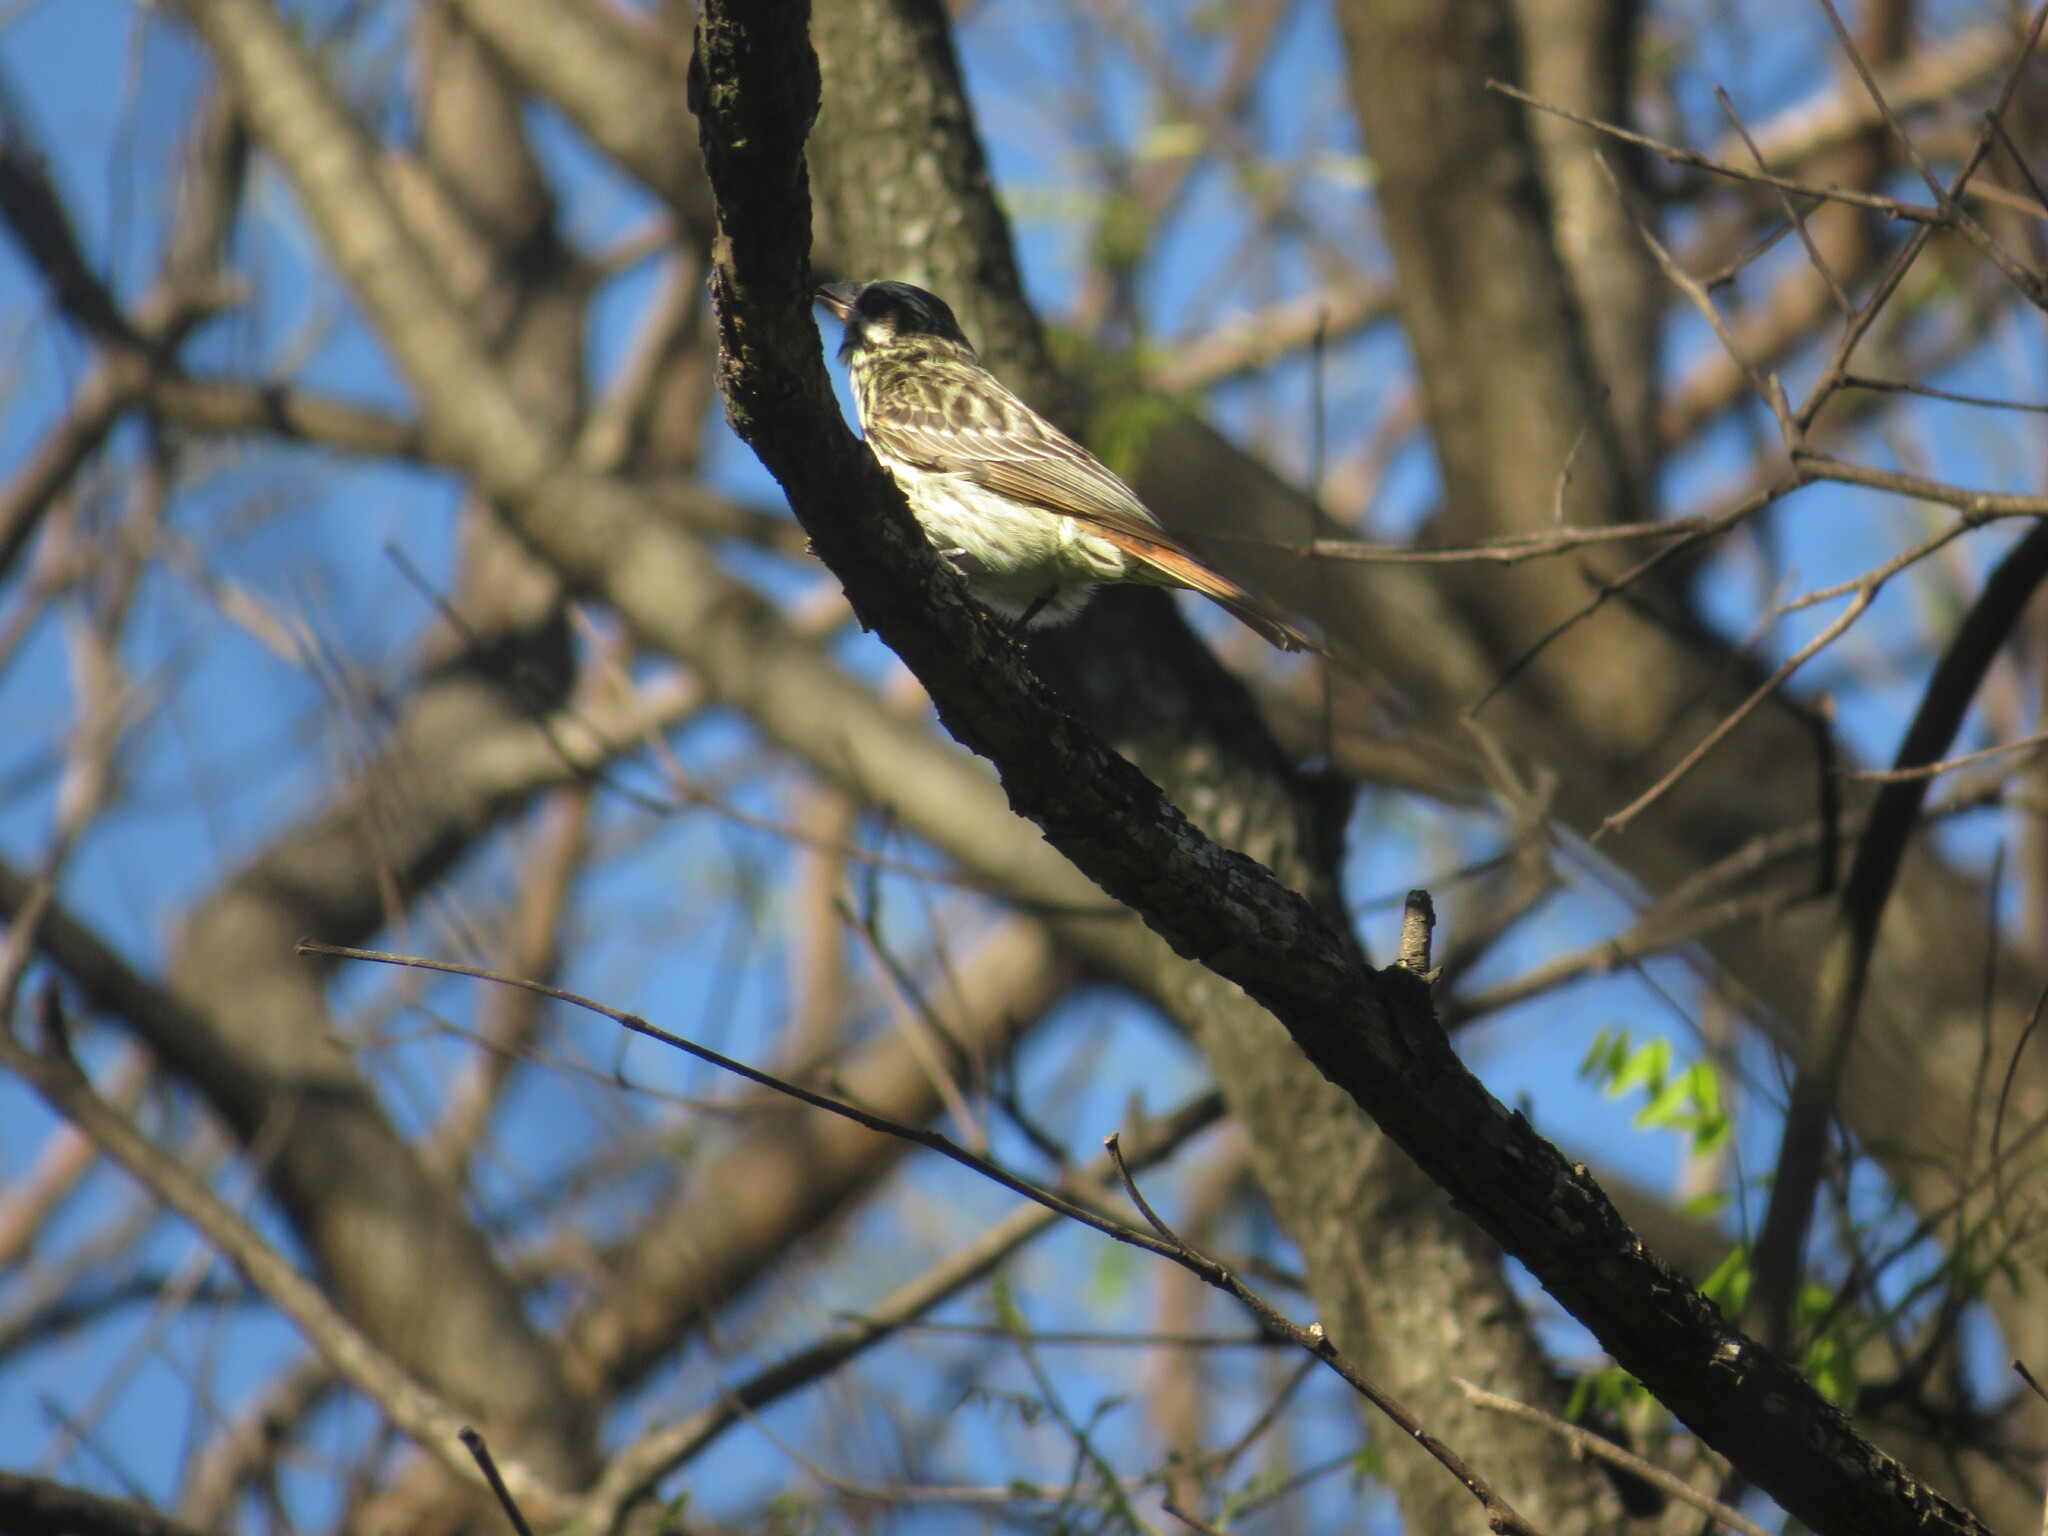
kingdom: Animalia
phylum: Chordata
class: Aves
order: Passeriformes
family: Tyrannidae
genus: Myiodynastes
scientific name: Myiodynastes maculatus
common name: Streaked flycatcher
